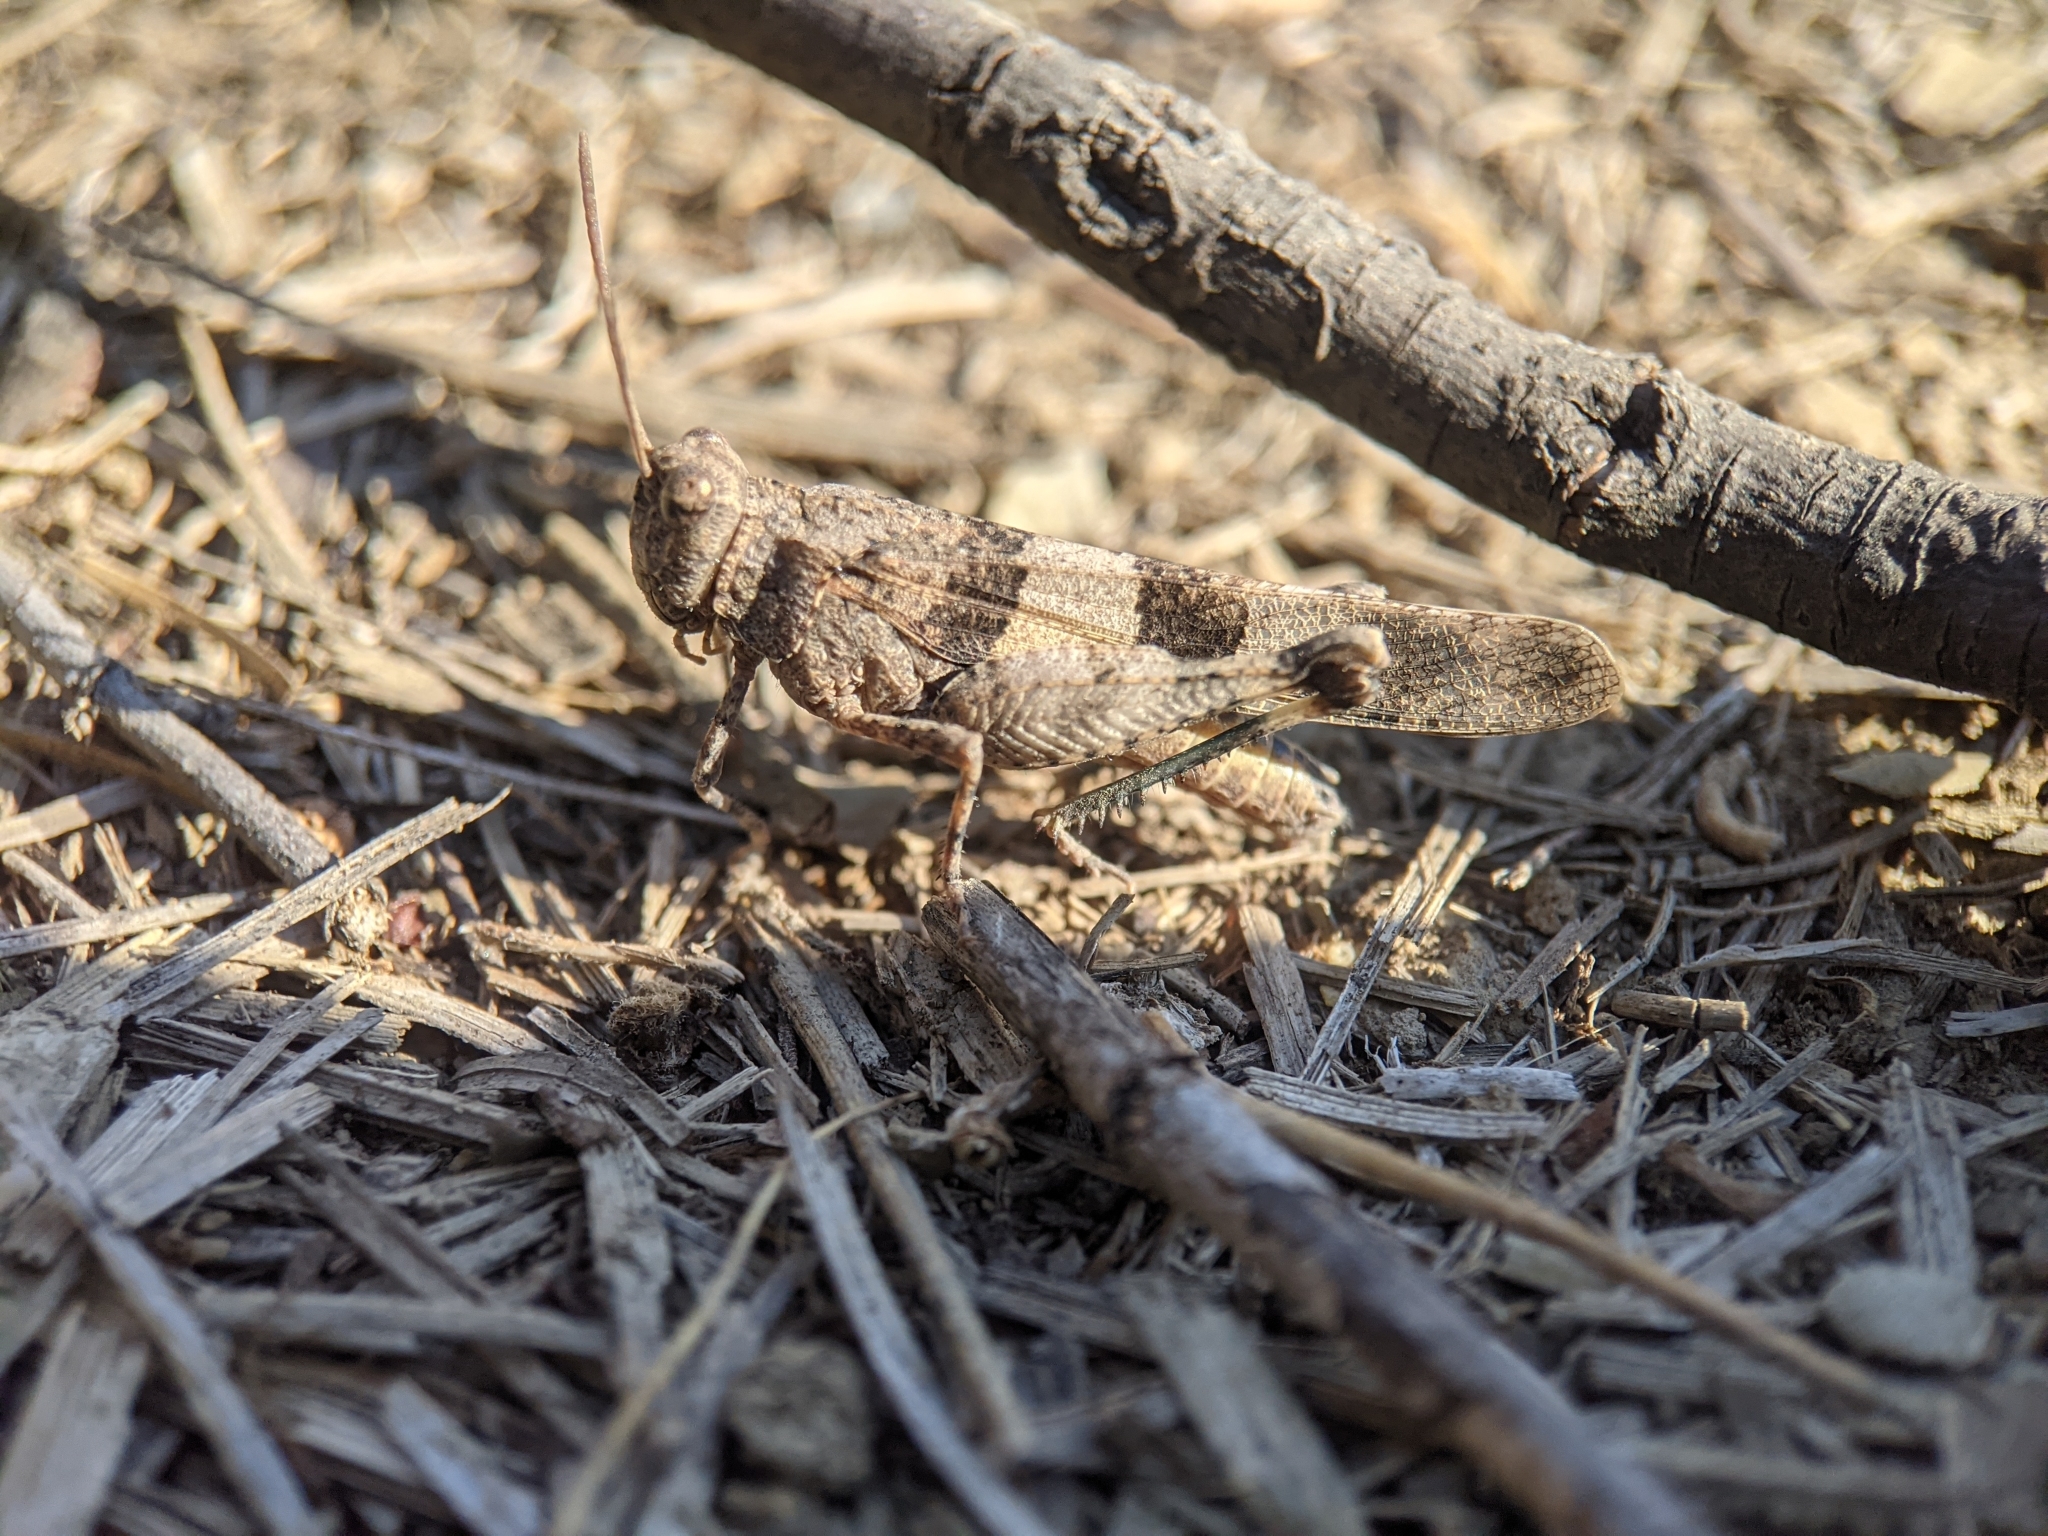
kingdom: Animalia
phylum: Arthropoda
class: Insecta
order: Orthoptera
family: Acrididae
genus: Oedipoda
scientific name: Oedipoda caerulescens
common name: Blue-winged grasshopper
